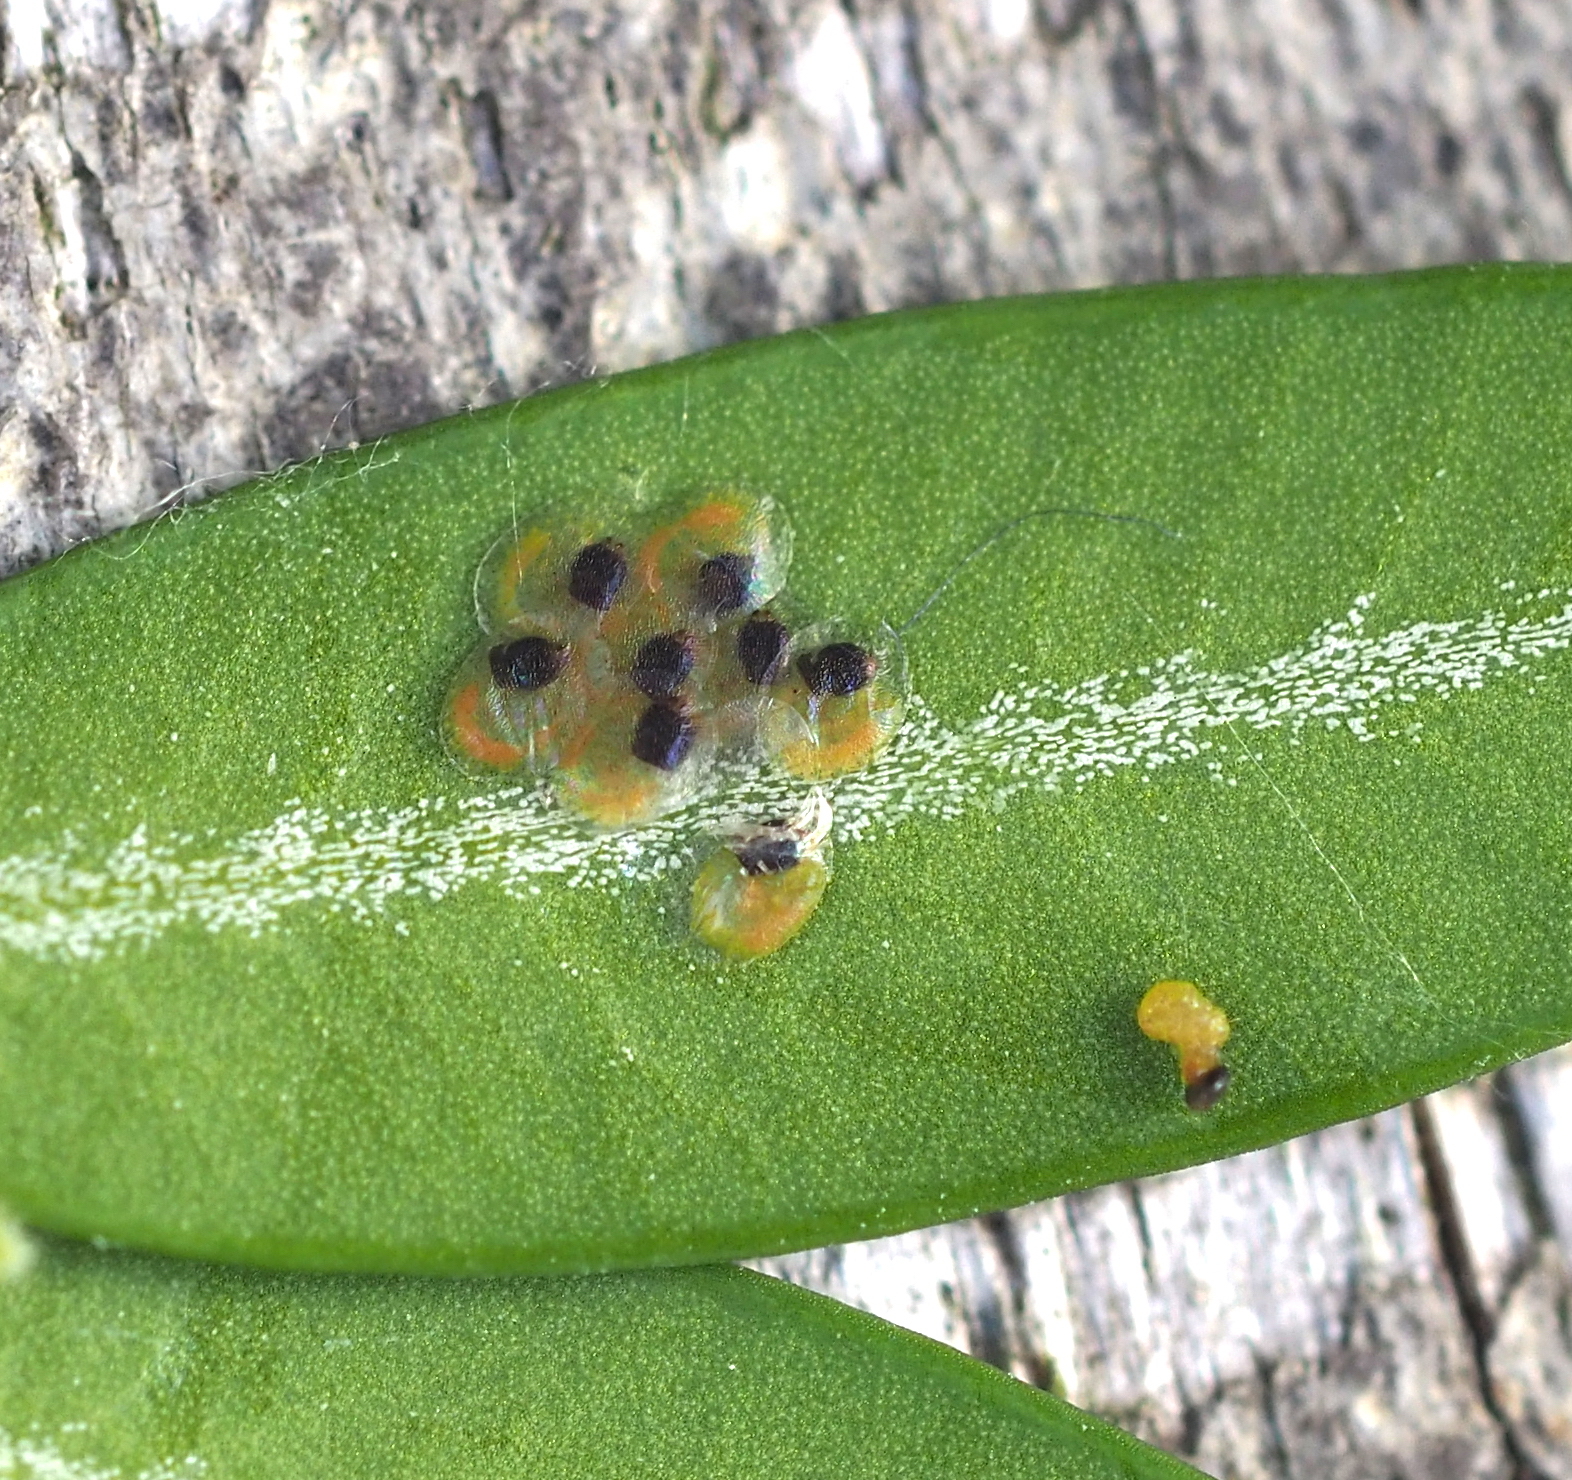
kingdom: Animalia
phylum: Arthropoda
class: Insecta
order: Lepidoptera
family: Crambidae
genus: Cydalima
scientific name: Cydalima perspectalis
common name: Box tree moth
